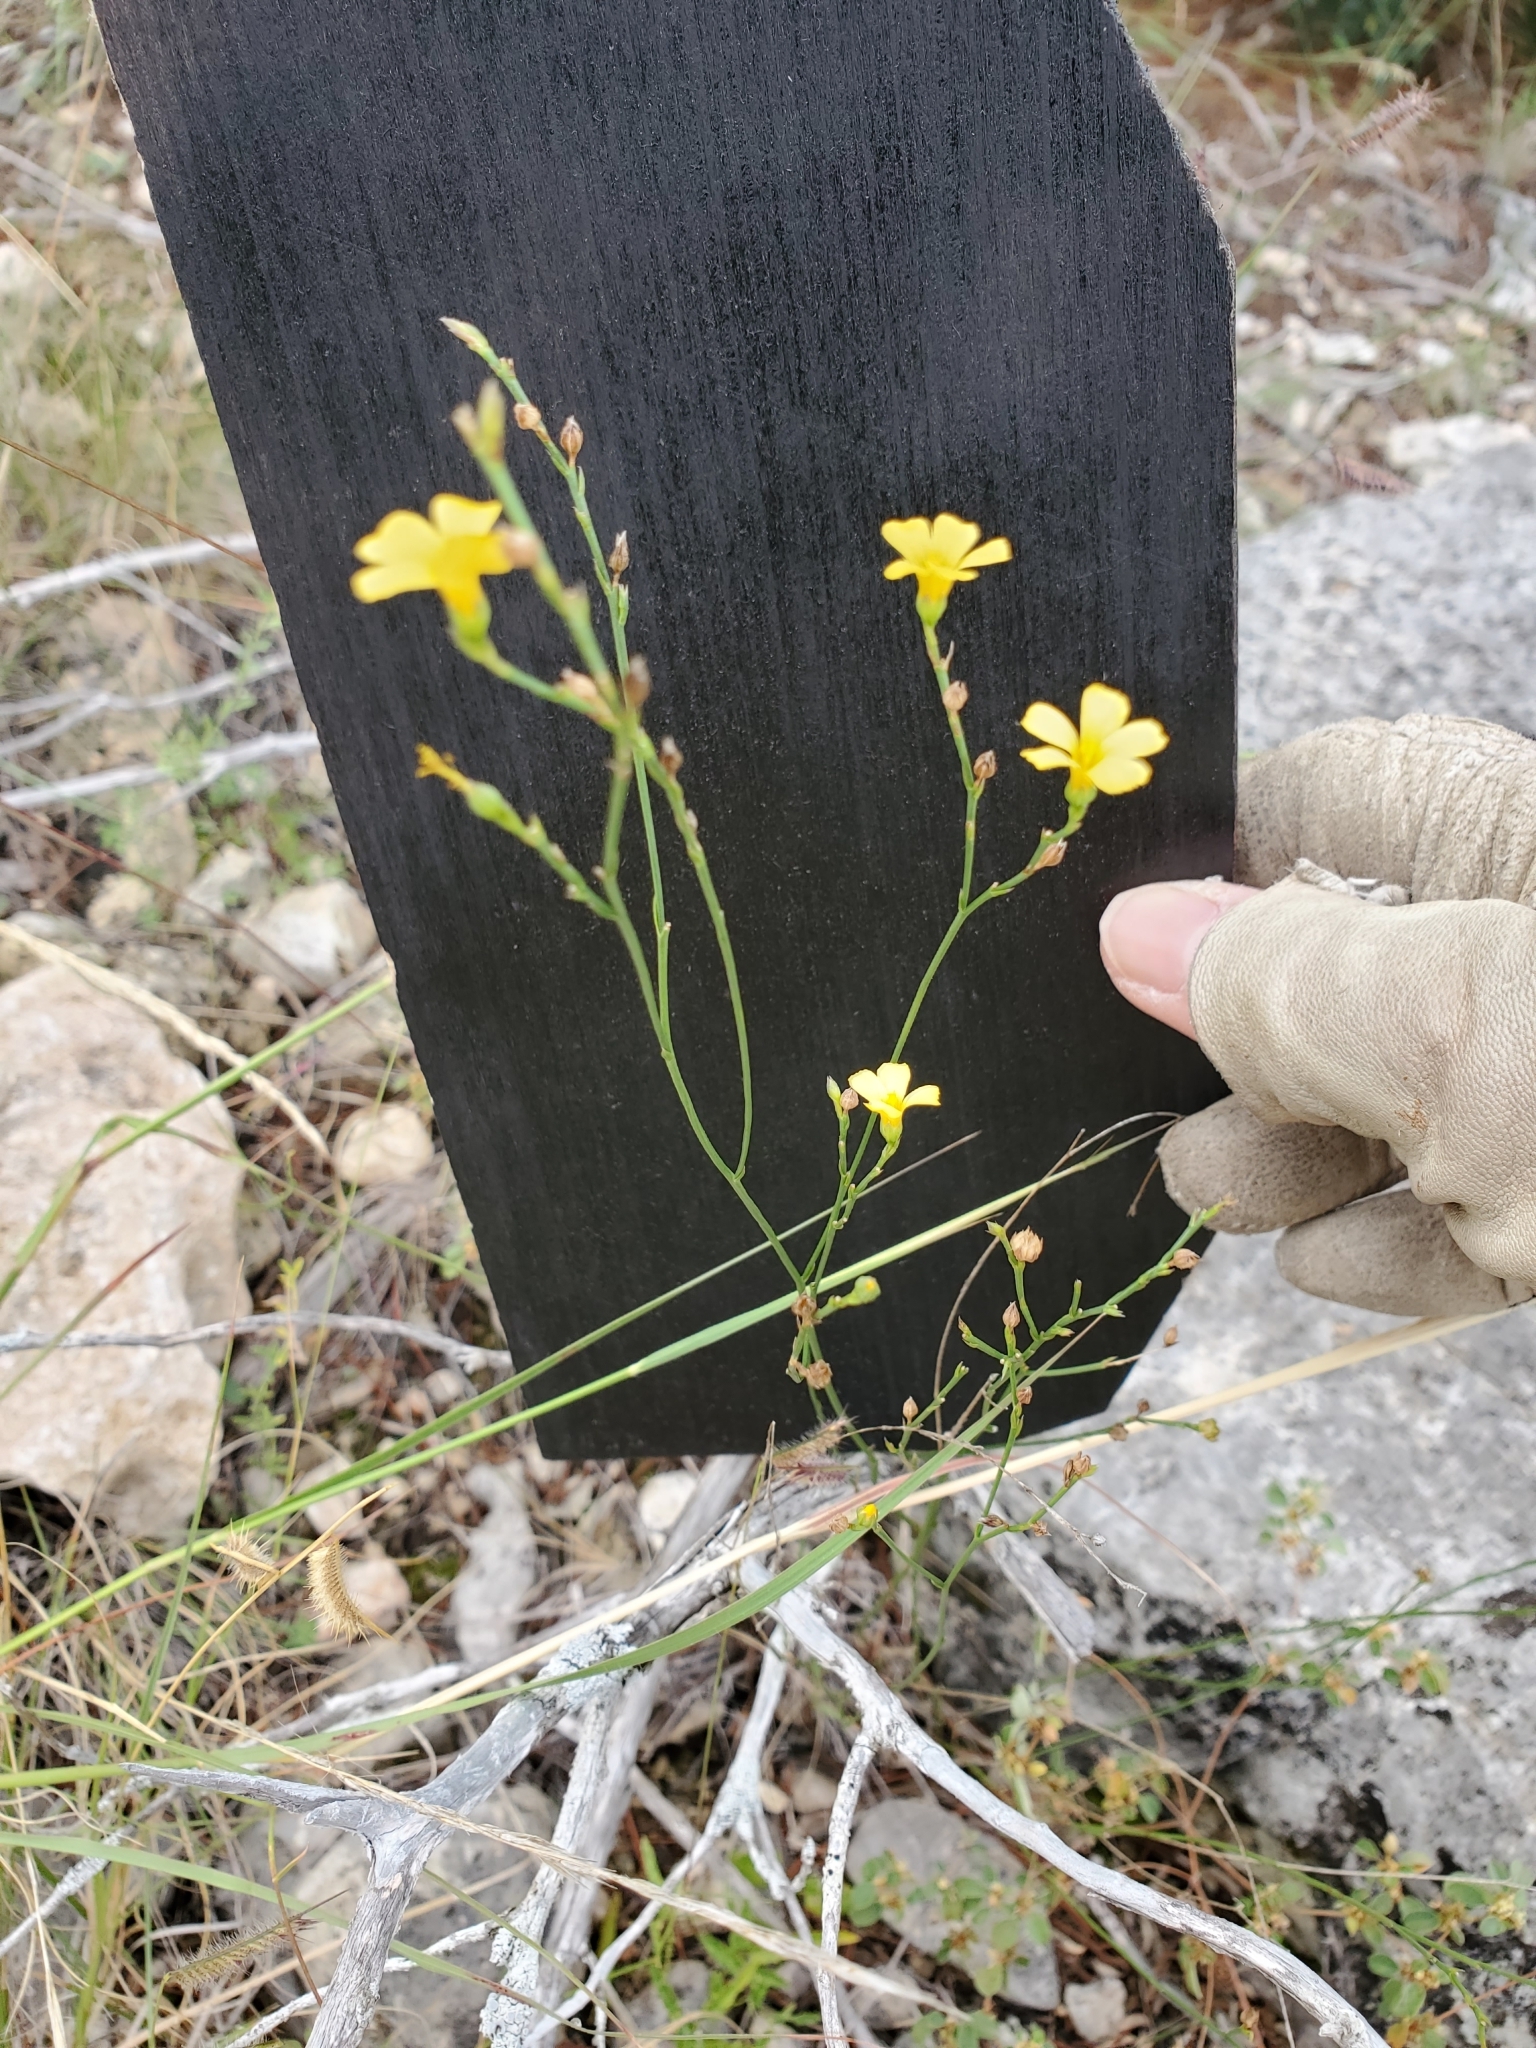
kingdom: Plantae
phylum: Tracheophyta
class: Magnoliopsida
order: Malpighiales
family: Linaceae
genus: Linum
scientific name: Linum rupestre
